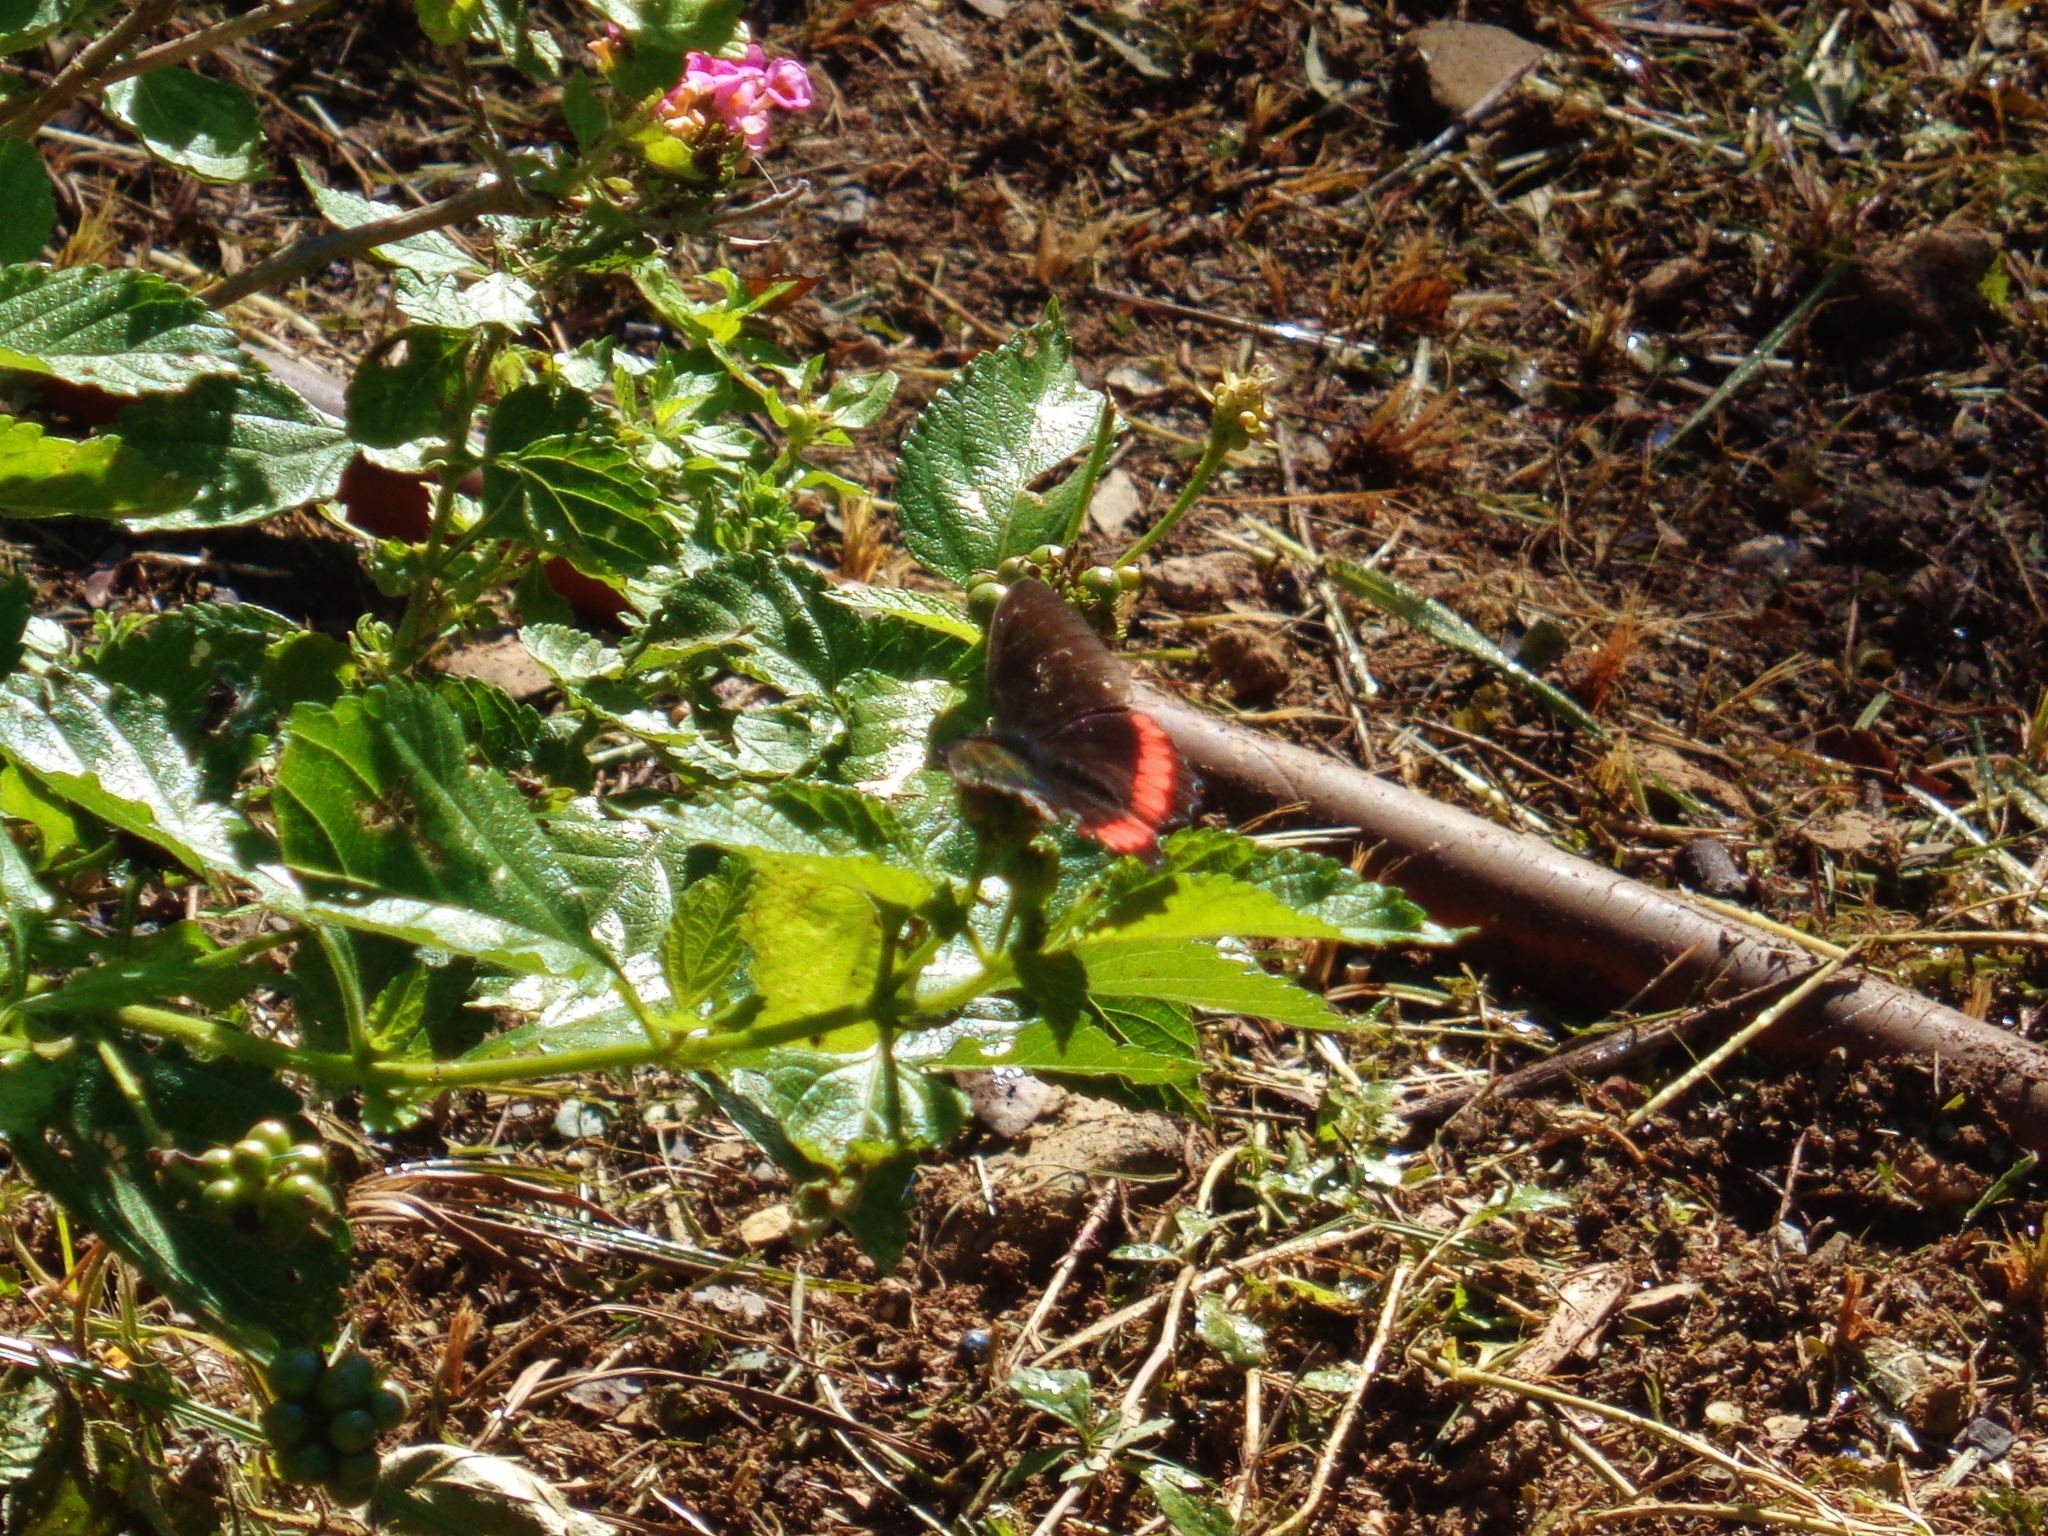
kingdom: Animalia
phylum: Arthropoda
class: Insecta
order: Lepidoptera
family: Nymphalidae
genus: Biblis
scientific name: Biblis aganisa
